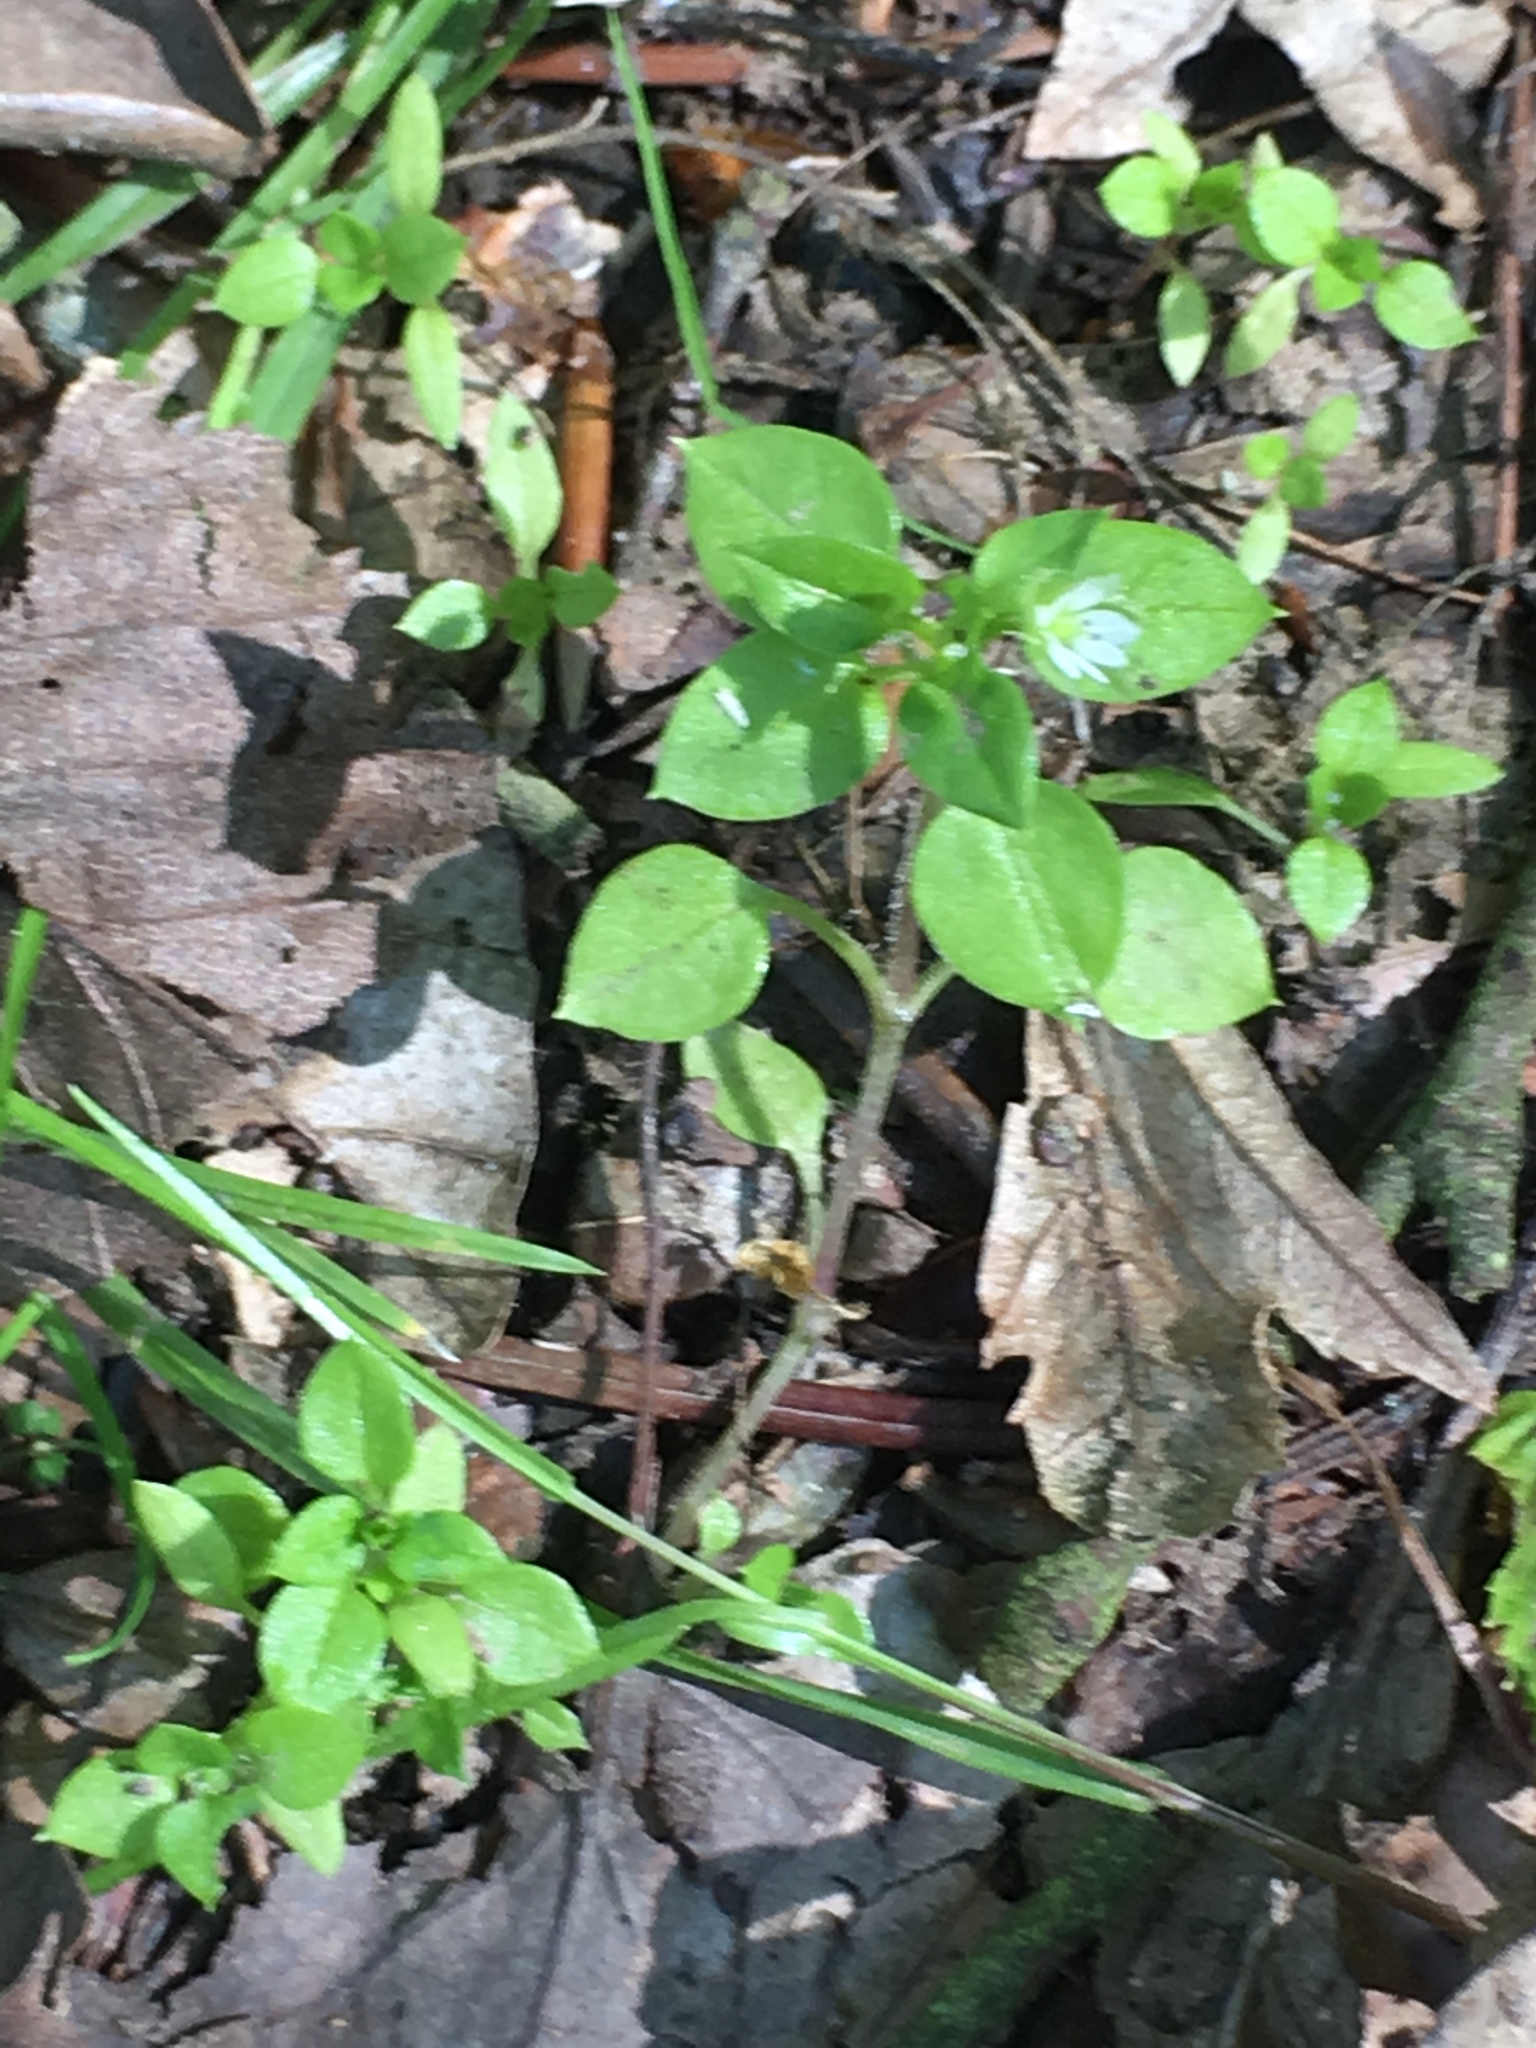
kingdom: Plantae
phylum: Tracheophyta
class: Magnoliopsida
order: Caryophyllales
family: Caryophyllaceae
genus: Stellaria
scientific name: Stellaria media
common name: Common chickweed
